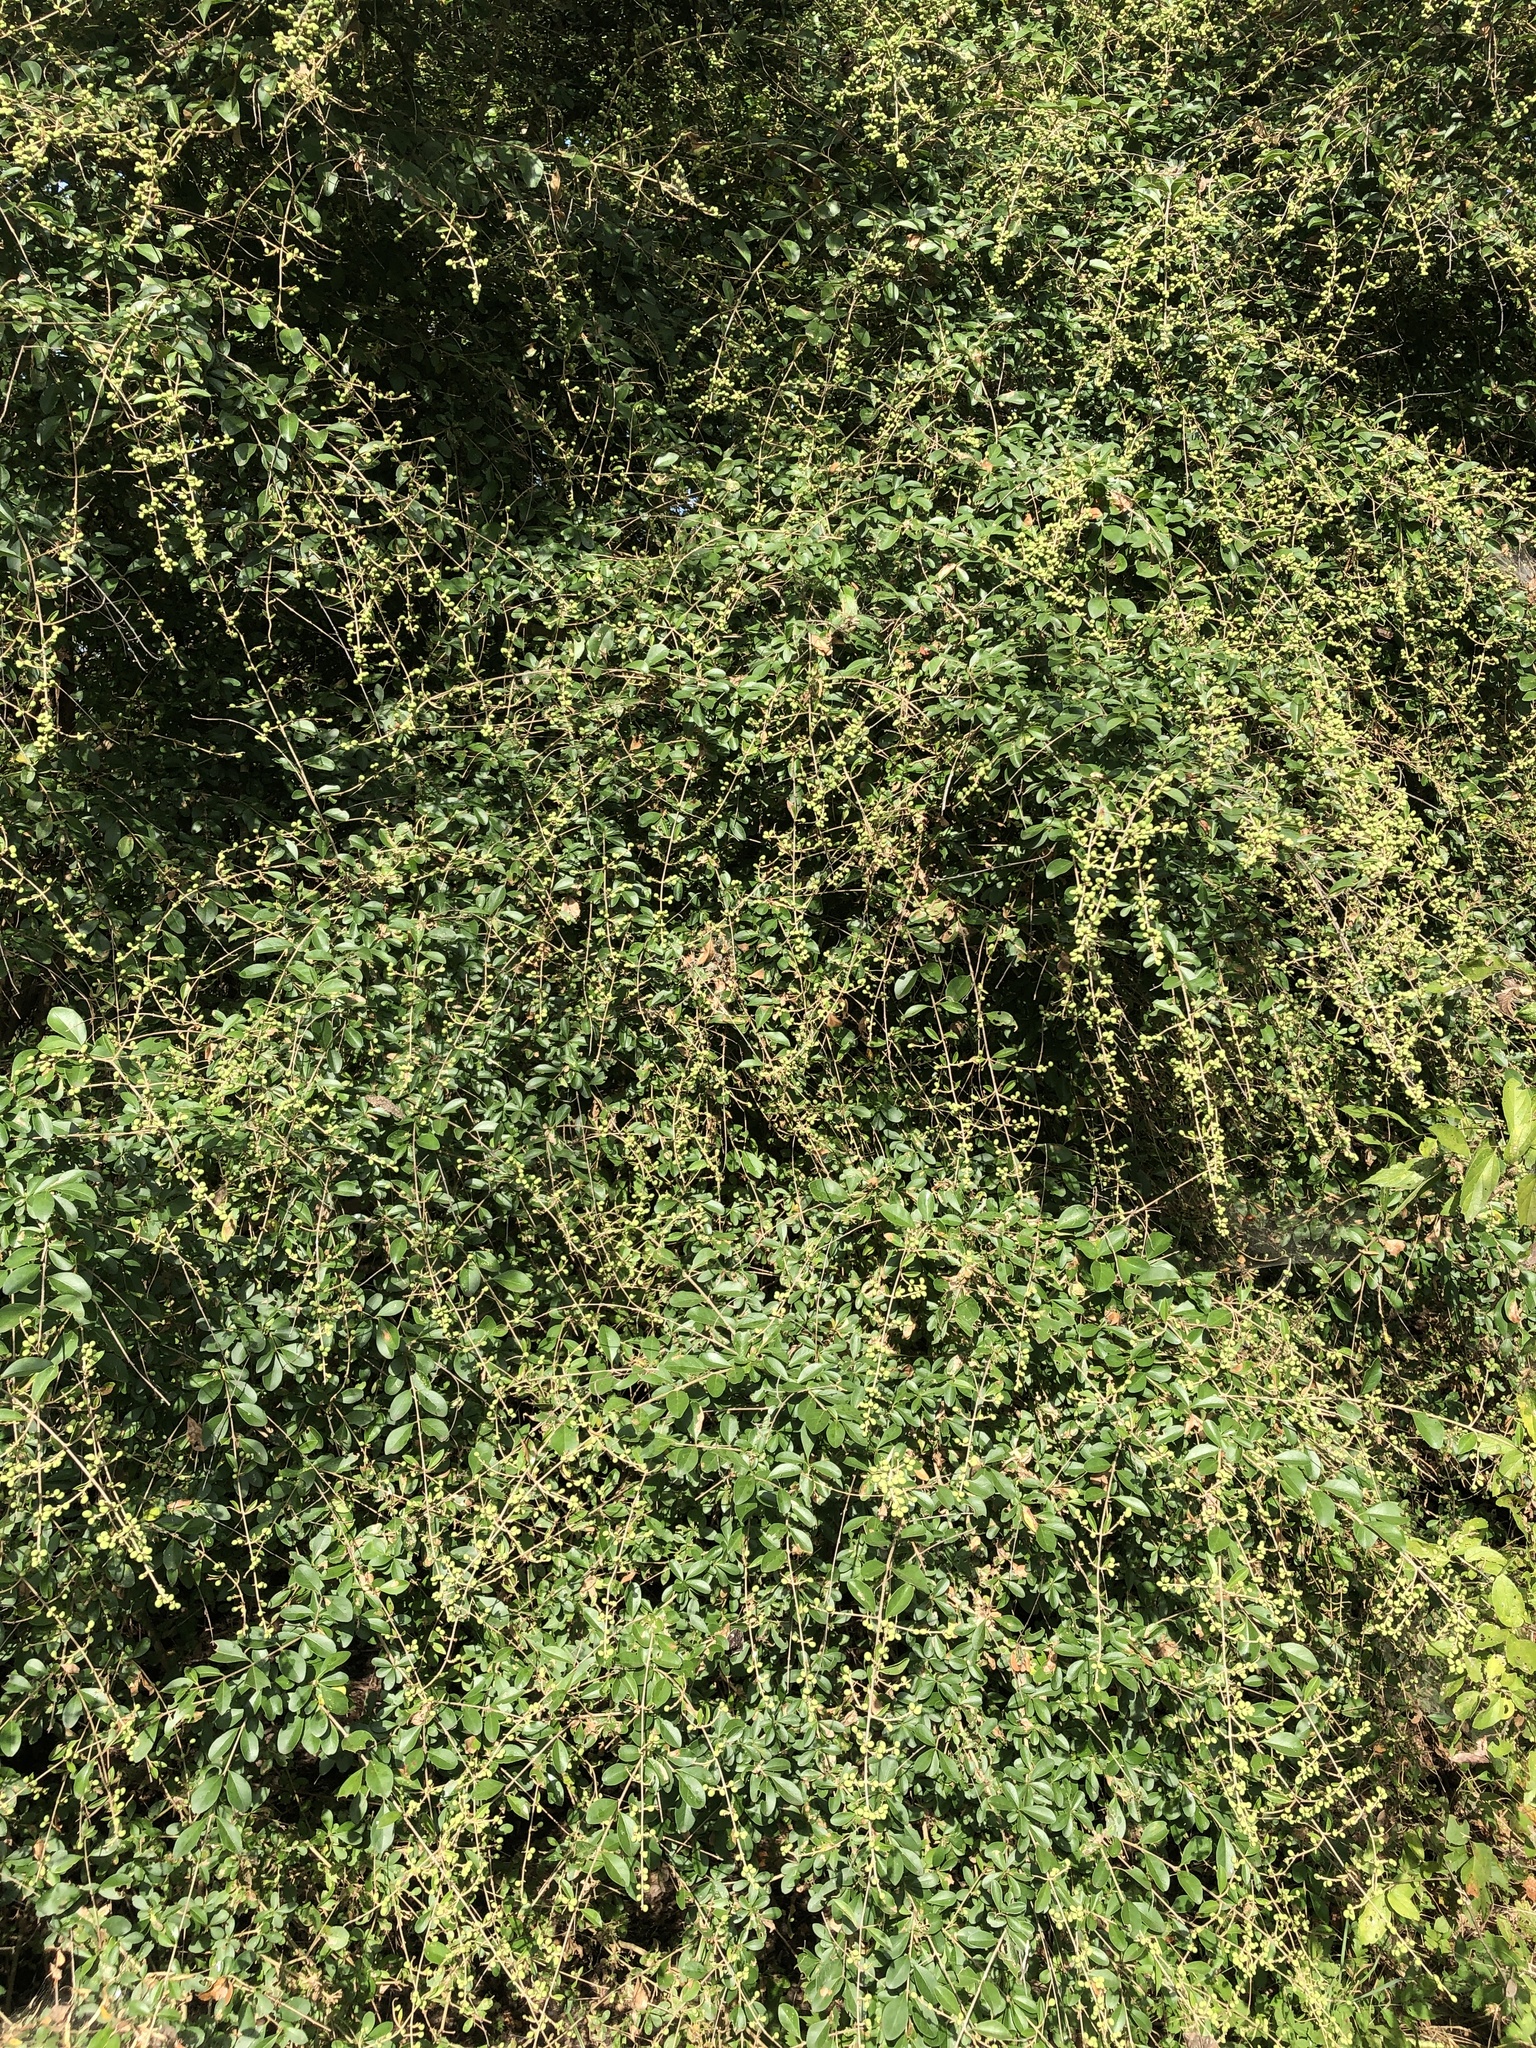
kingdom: Plantae
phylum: Tracheophyta
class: Magnoliopsida
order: Lamiales
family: Oleaceae
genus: Ligustrum
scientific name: Ligustrum quihoui
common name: Waxyleaf privet
